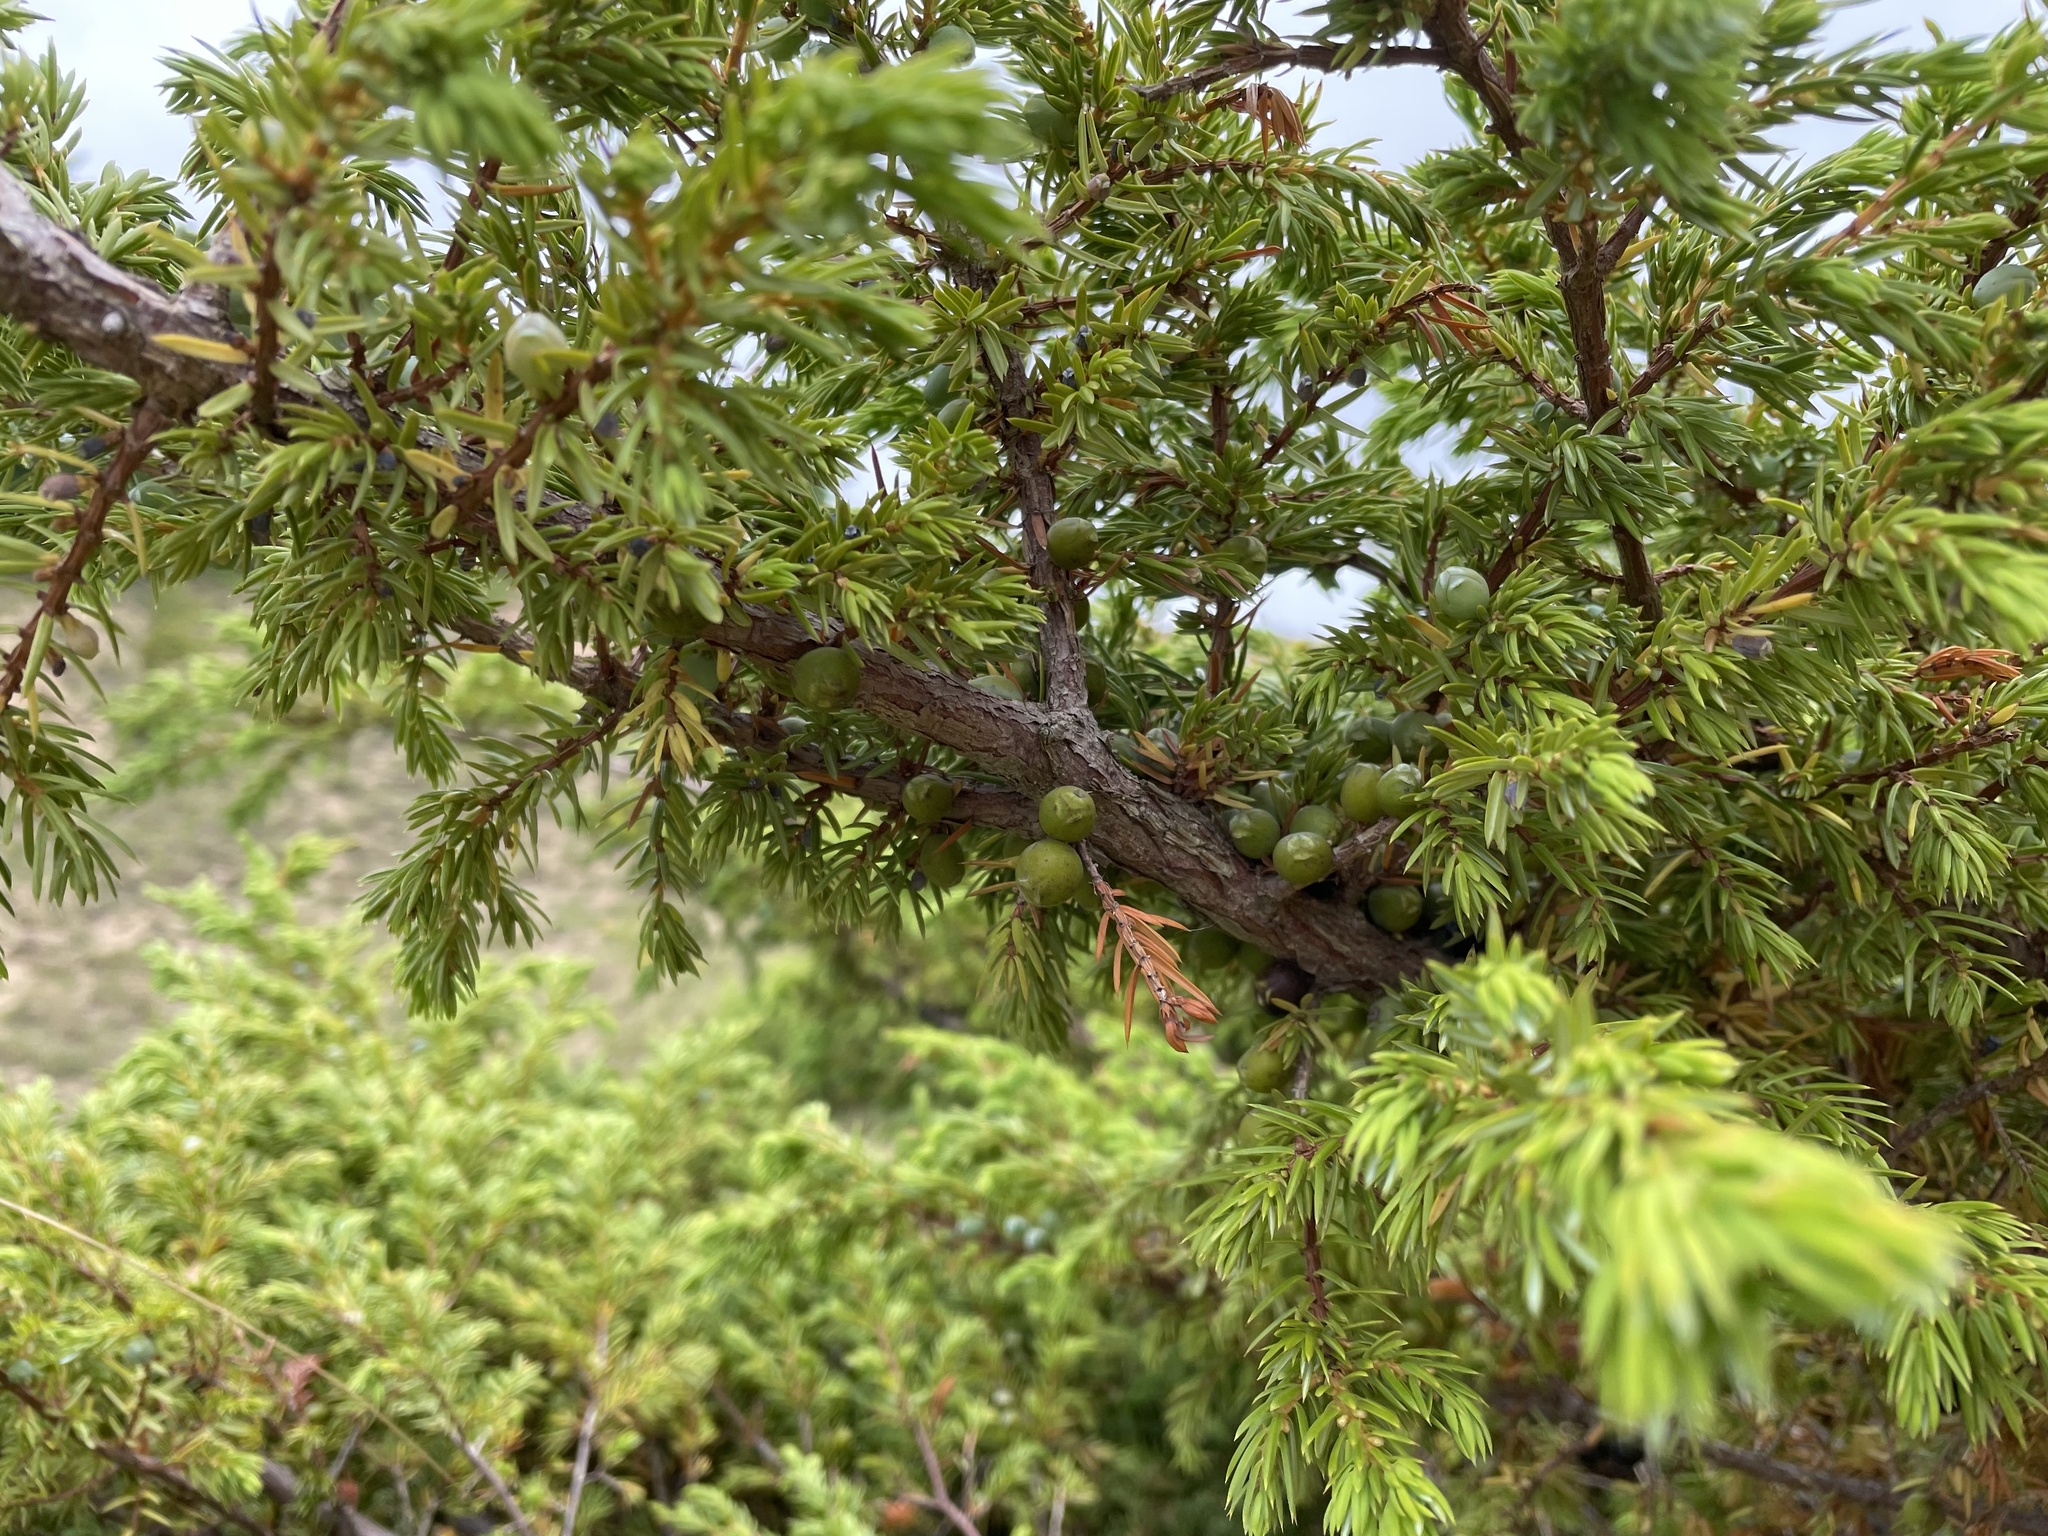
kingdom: Plantae
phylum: Tracheophyta
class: Pinopsida
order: Pinales
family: Cupressaceae
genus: Juniperus
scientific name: Juniperus communis
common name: Common juniper
